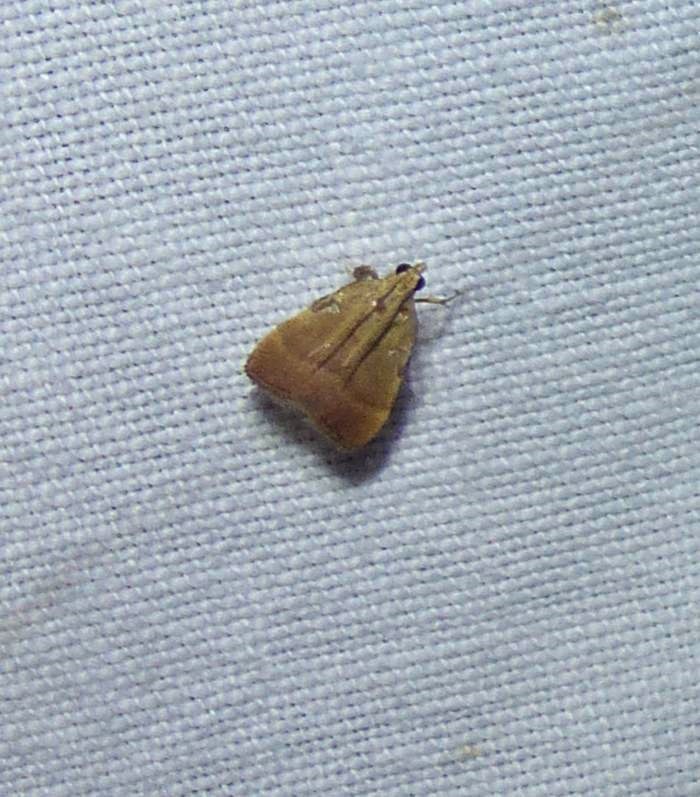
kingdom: Animalia
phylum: Arthropoda
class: Insecta
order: Lepidoptera
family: Pyralidae
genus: Condylolomia
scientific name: Condylolomia participialis
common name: Drab condylolomia moth
